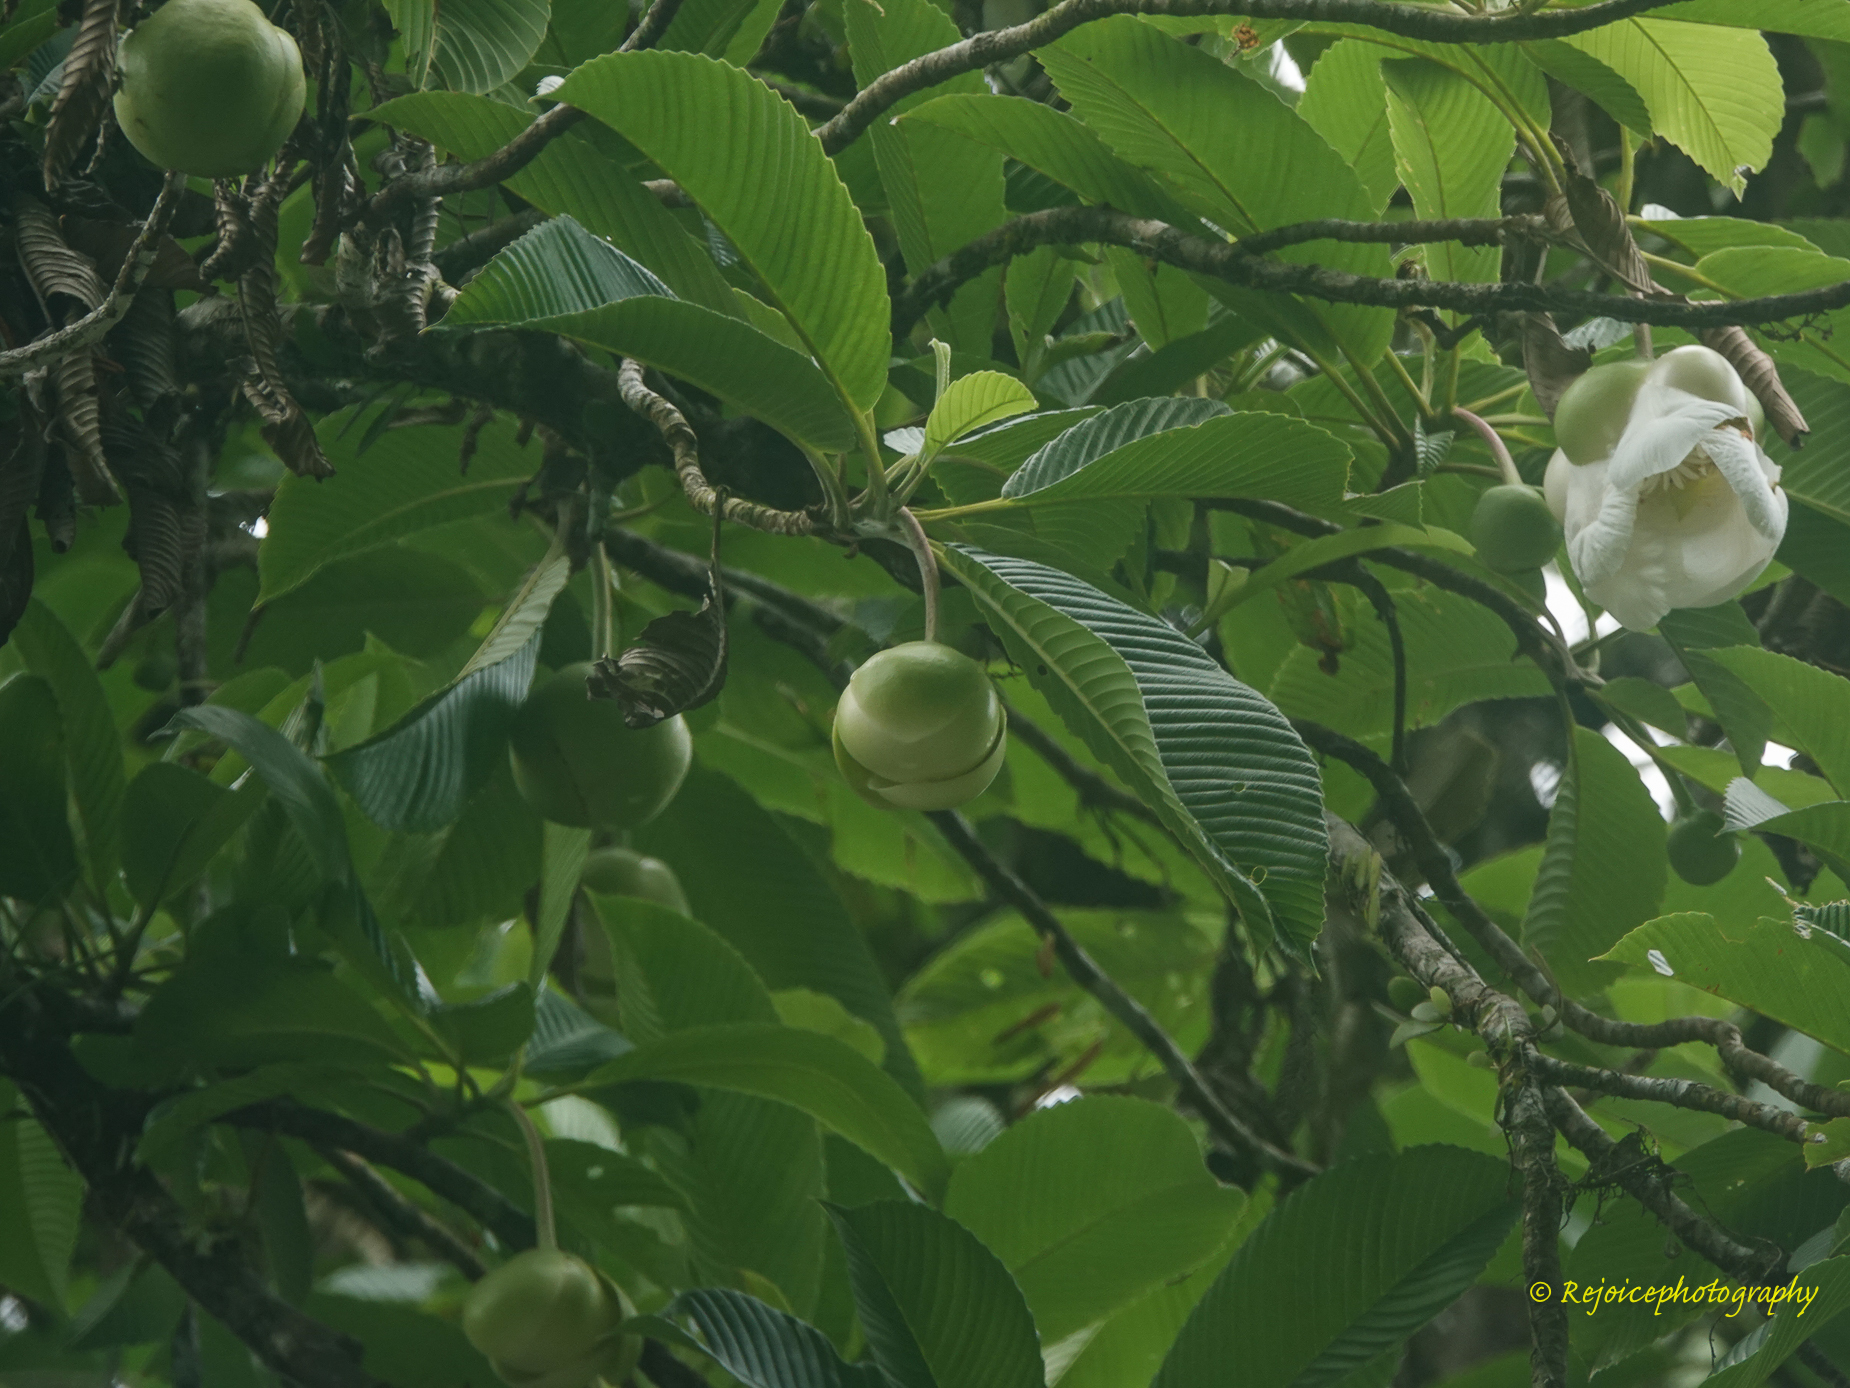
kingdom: Plantae
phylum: Tracheophyta
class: Magnoliopsida
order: Dilleniales
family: Dilleniaceae
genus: Dillenia
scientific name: Dillenia indica
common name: Elephant apple
